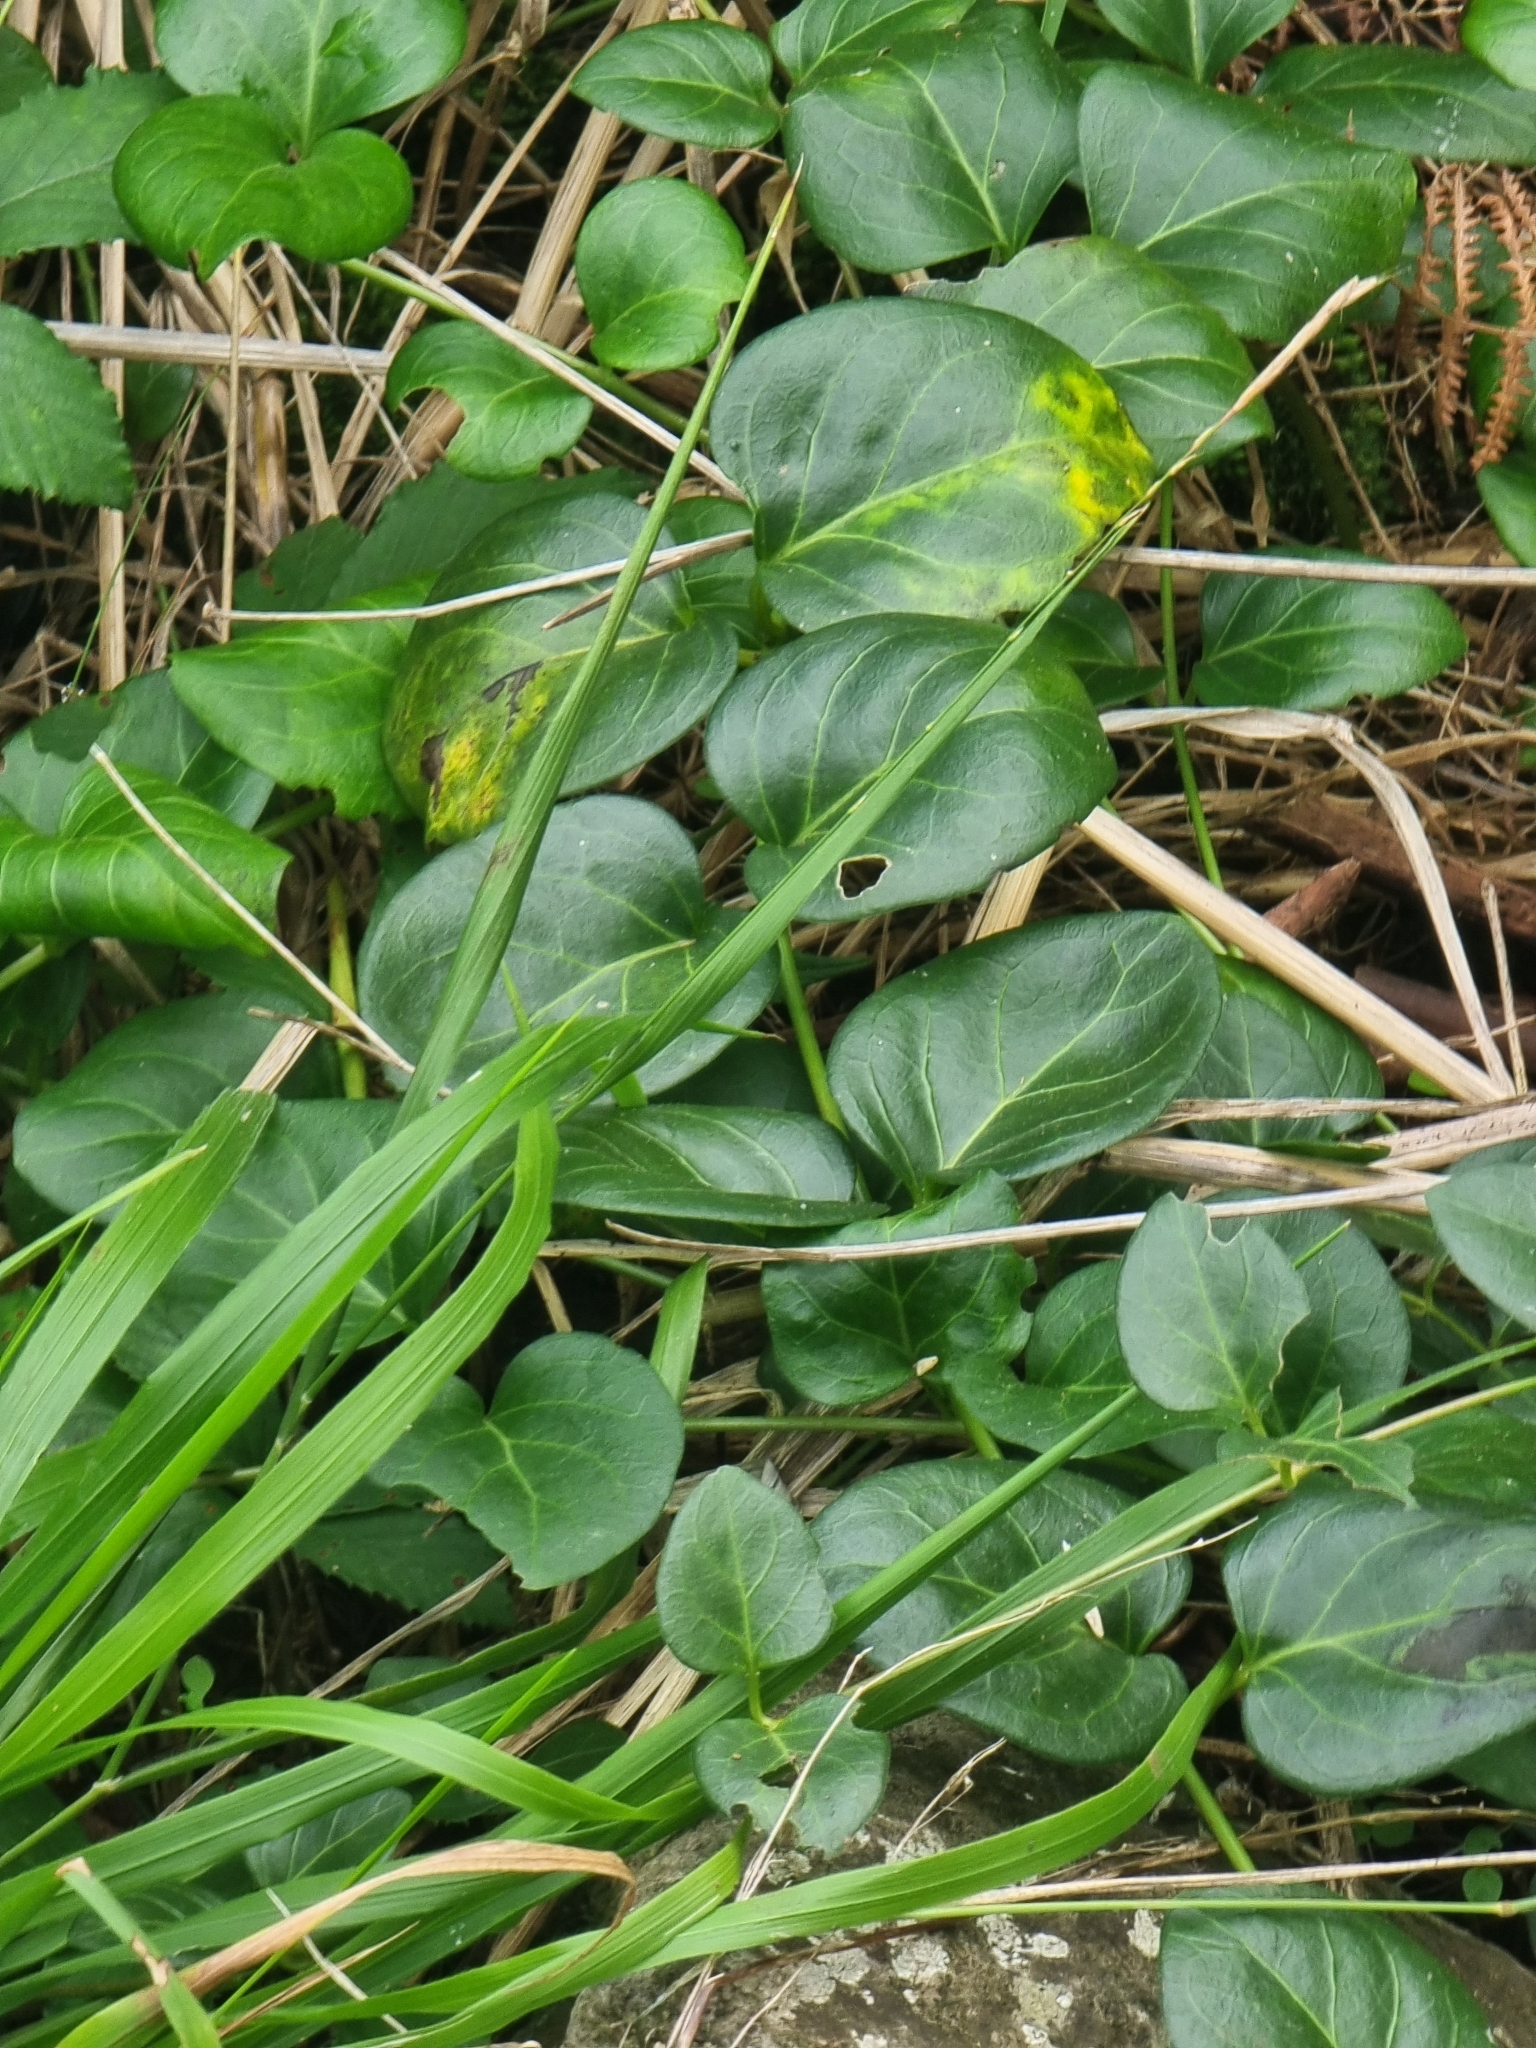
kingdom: Plantae
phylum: Tracheophyta
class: Magnoliopsida
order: Gentianales
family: Apocynaceae
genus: Vinca
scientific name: Vinca major
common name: Greater periwinkle
